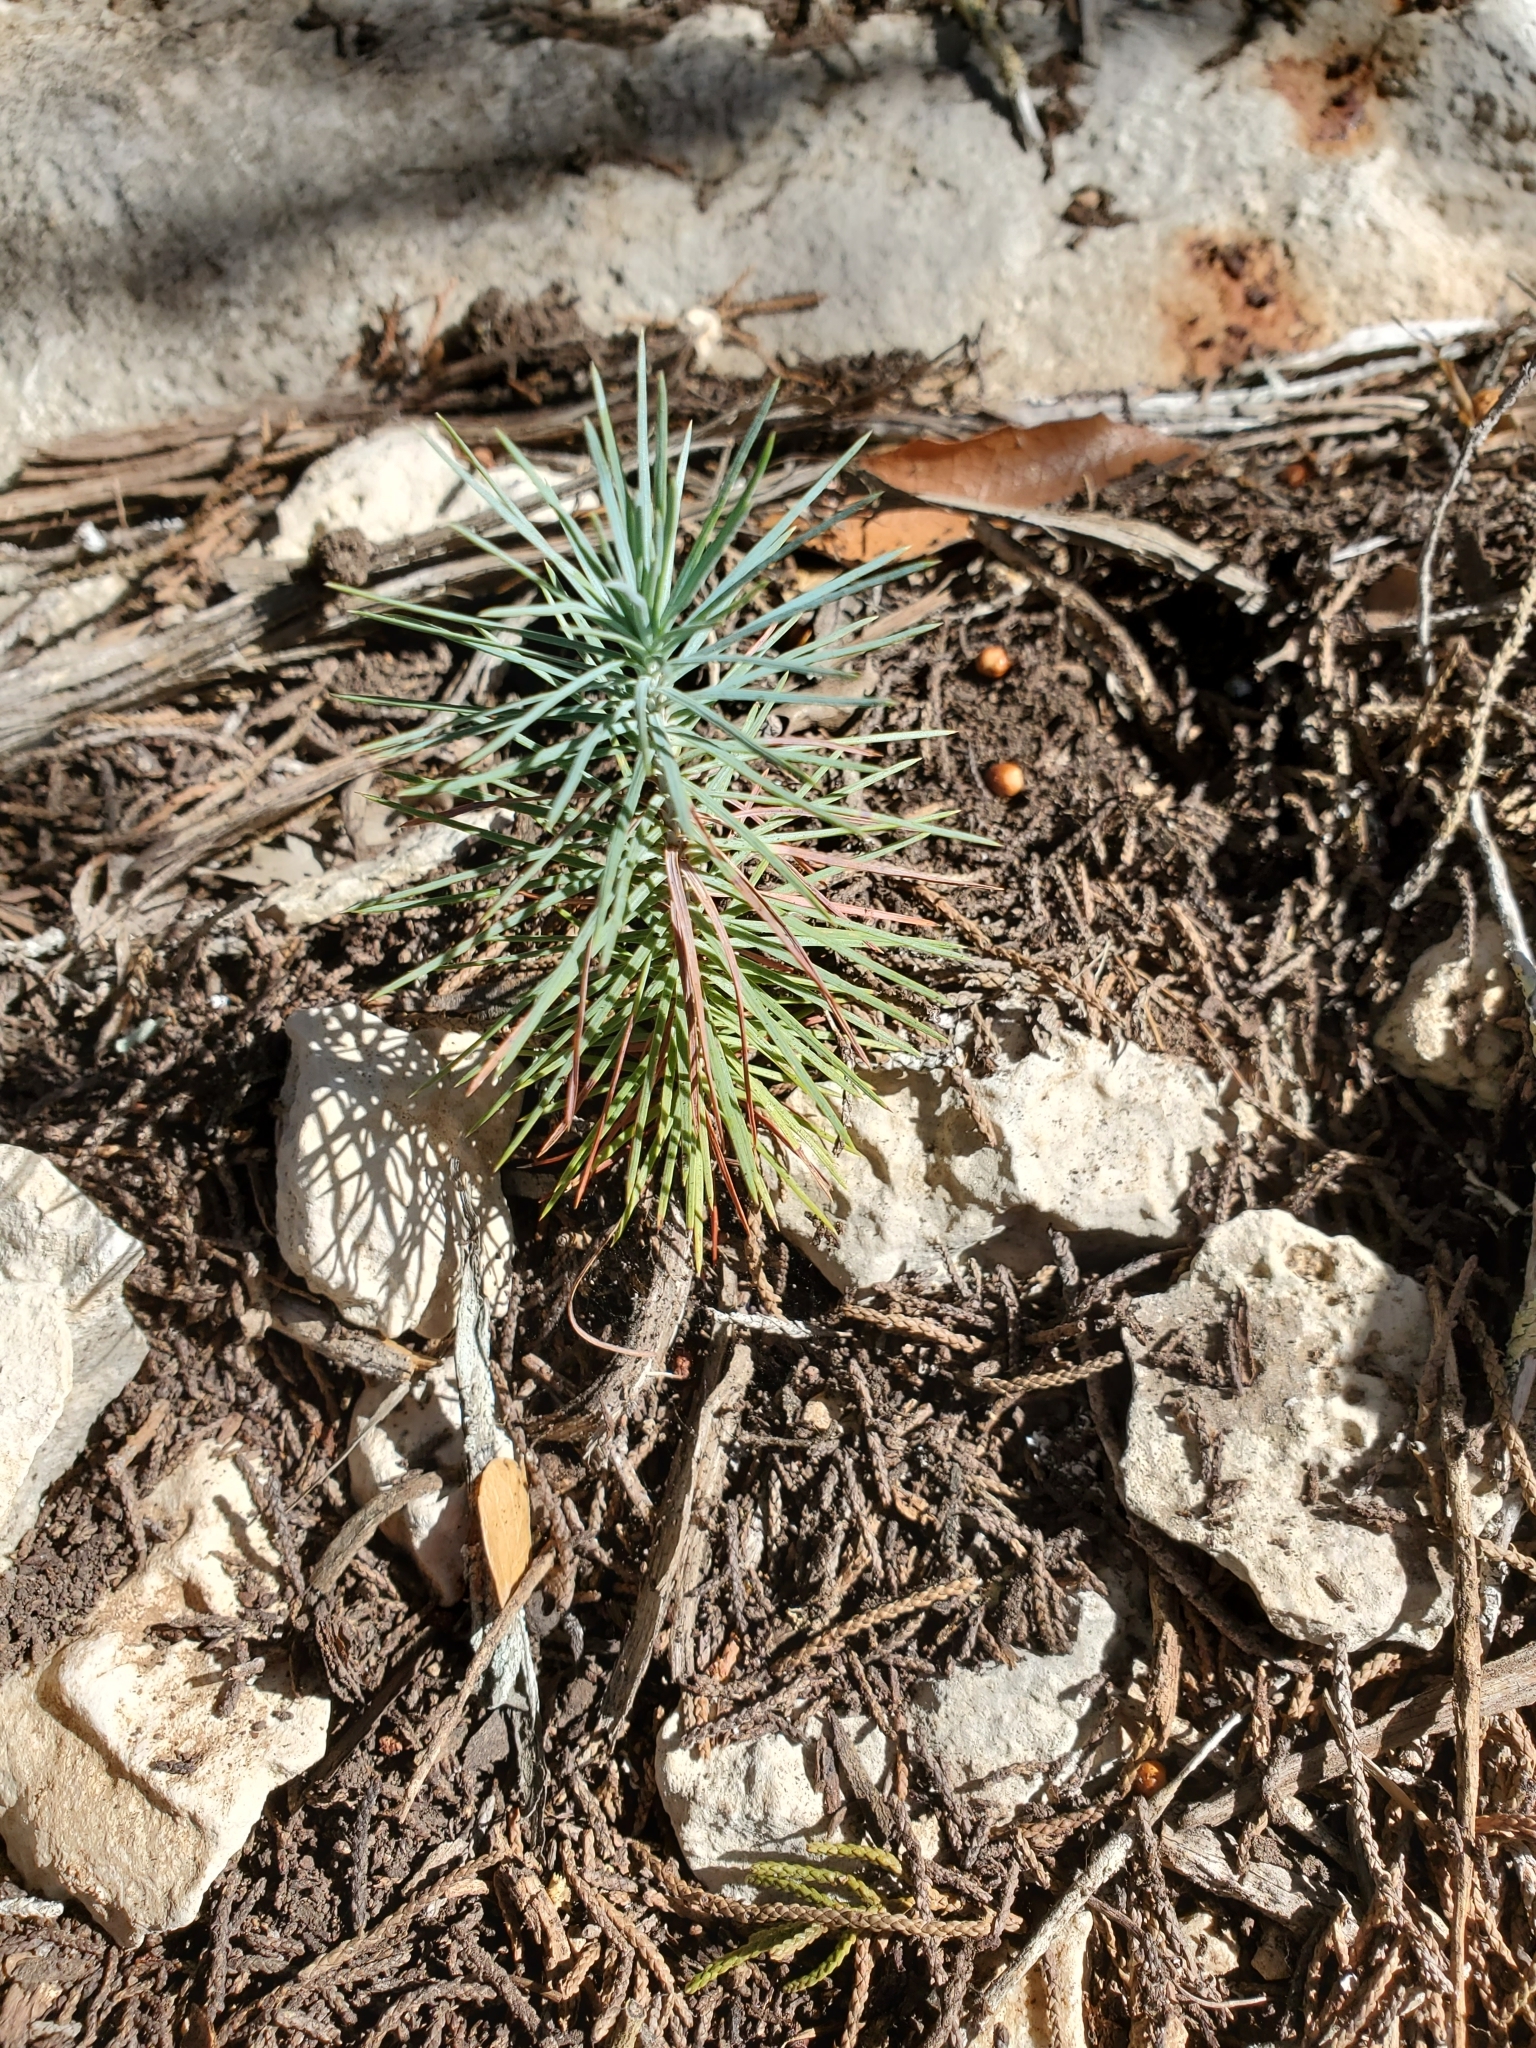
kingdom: Plantae
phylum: Tracheophyta
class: Pinopsida
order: Pinales
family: Pinaceae
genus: Pinus
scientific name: Pinus remota
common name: Nut pine
